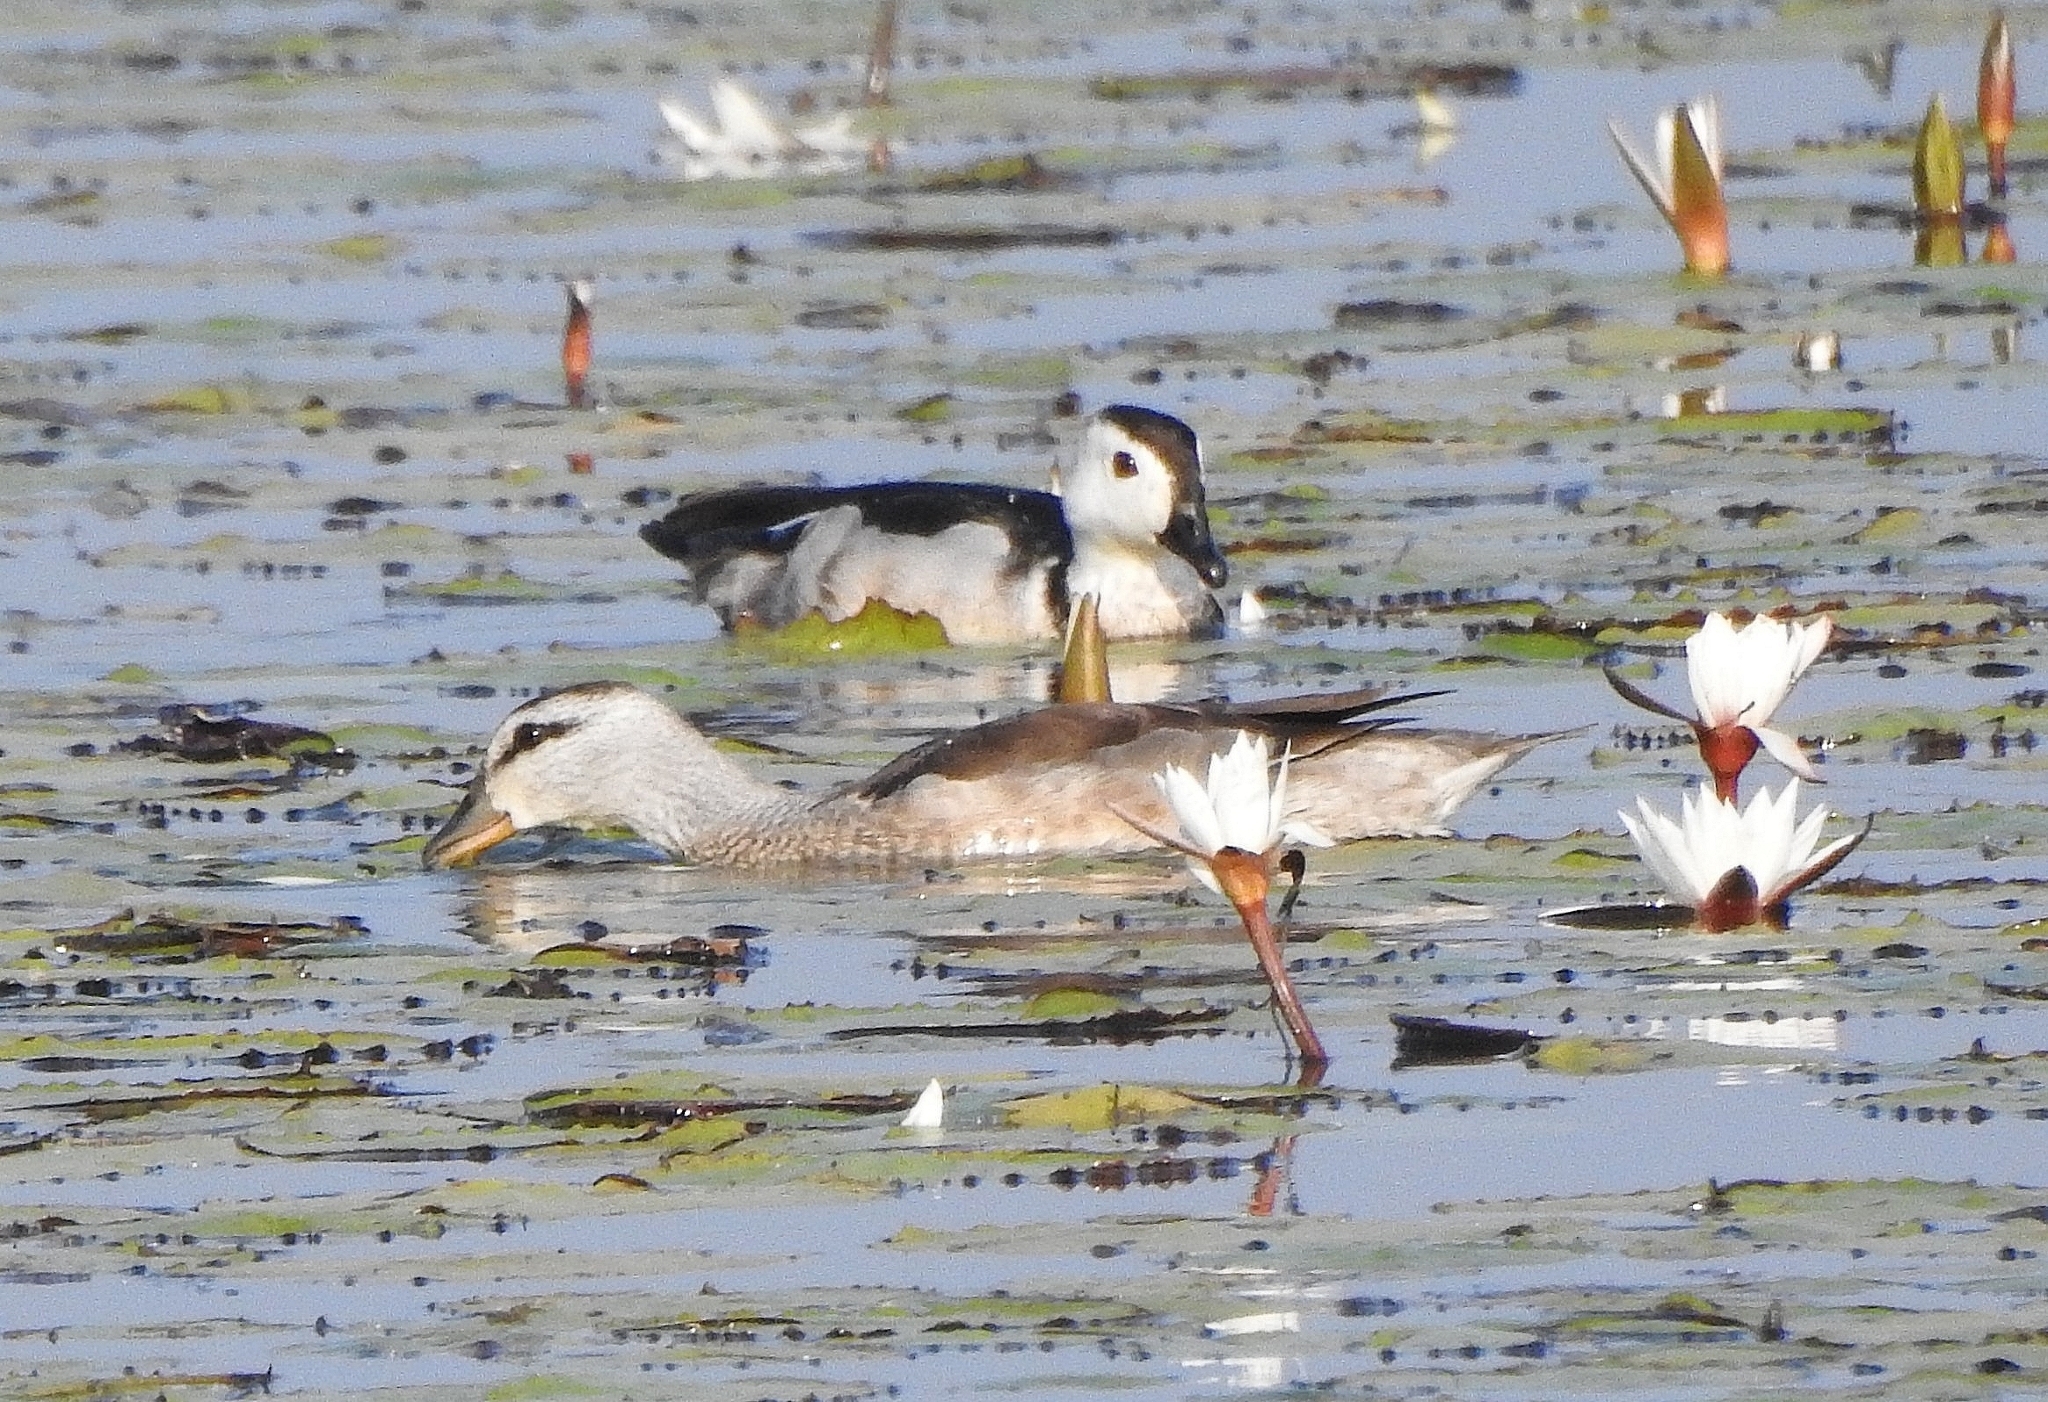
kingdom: Animalia
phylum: Chordata
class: Aves
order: Anseriformes
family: Anatidae
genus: Nettapus
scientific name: Nettapus coromandelianus
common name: Cotton pygmy-goose
